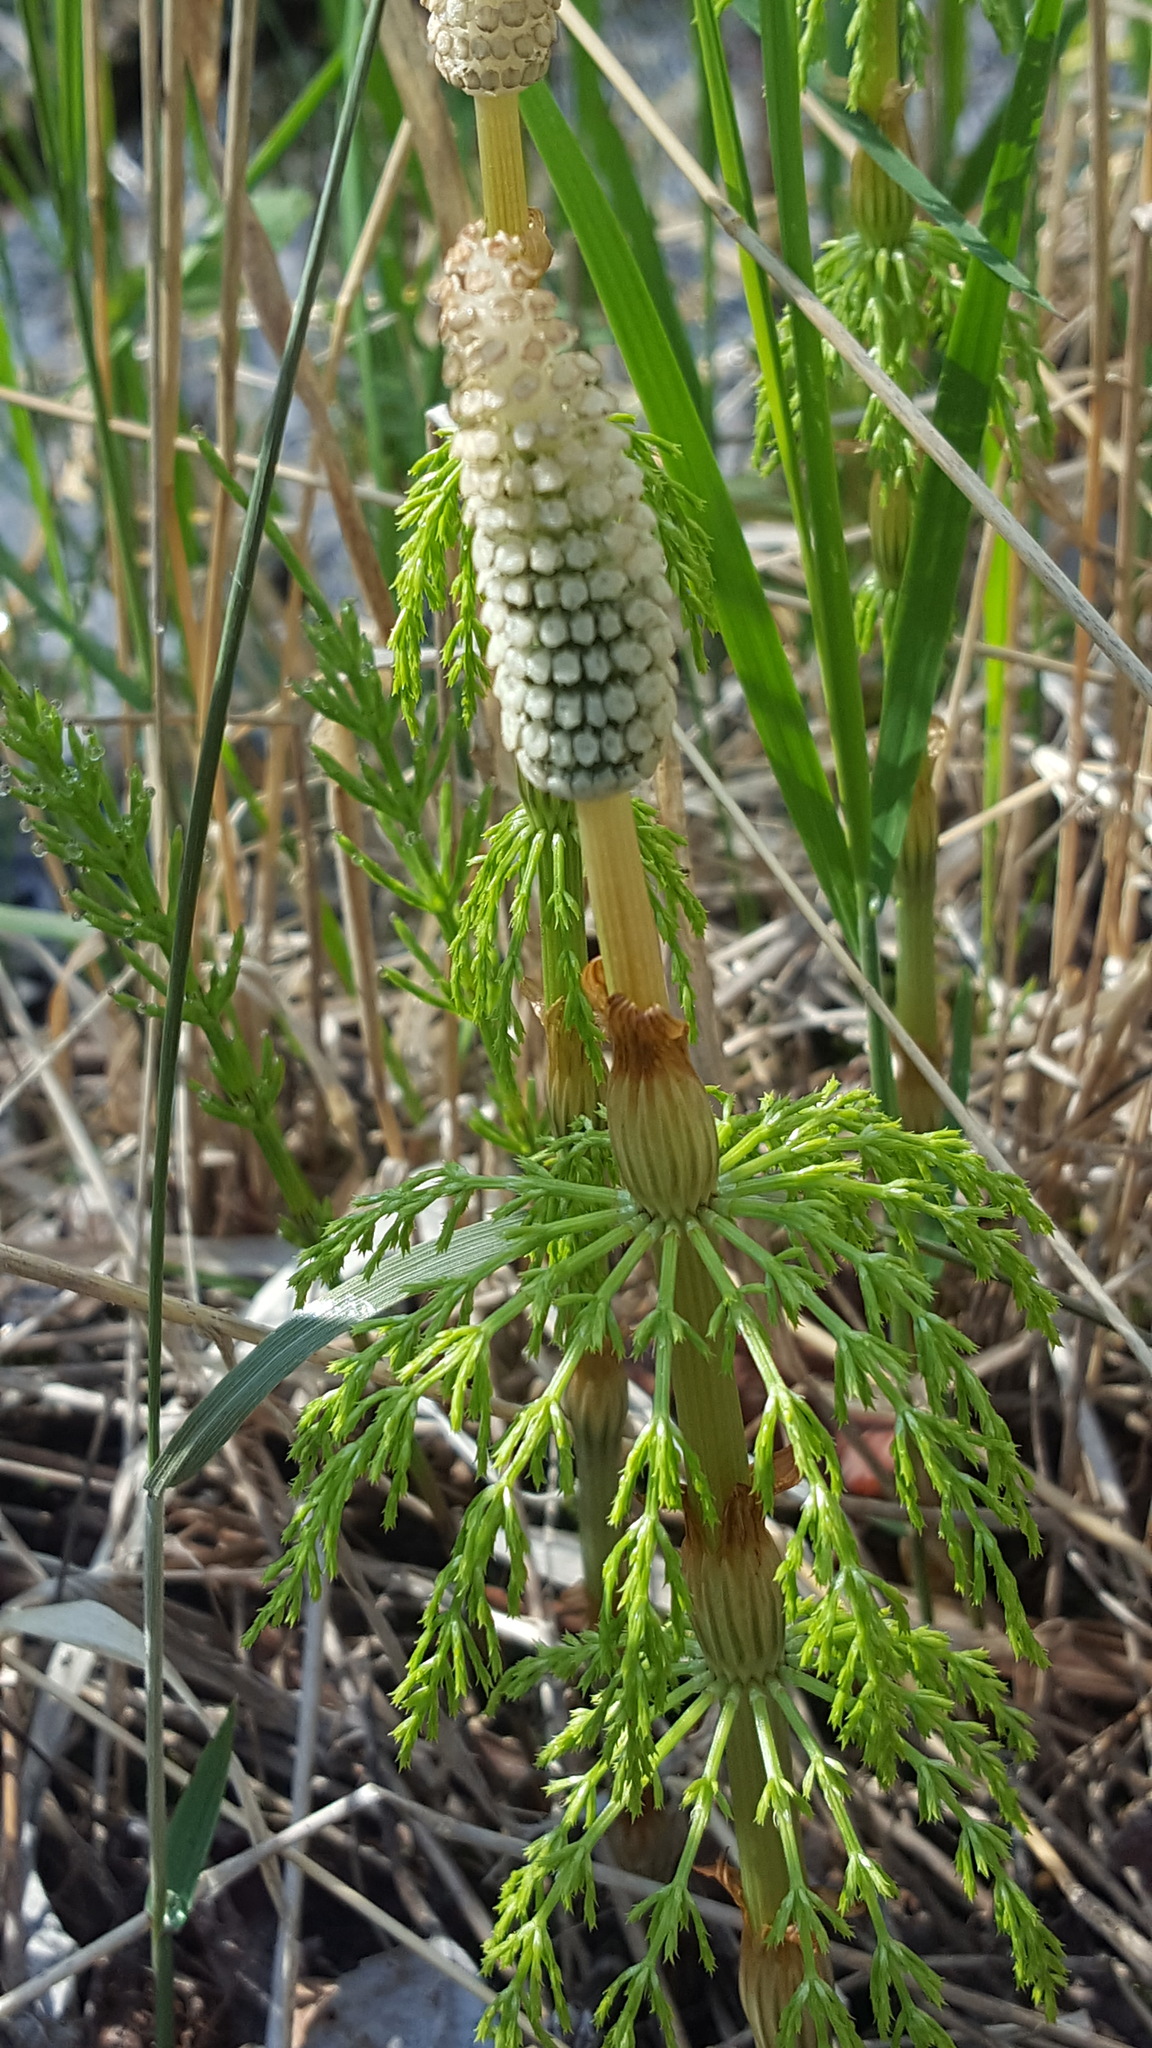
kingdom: Plantae
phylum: Tracheophyta
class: Polypodiopsida
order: Equisetales
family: Equisetaceae
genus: Equisetum
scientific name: Equisetum sylvaticum
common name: Wood horsetail
